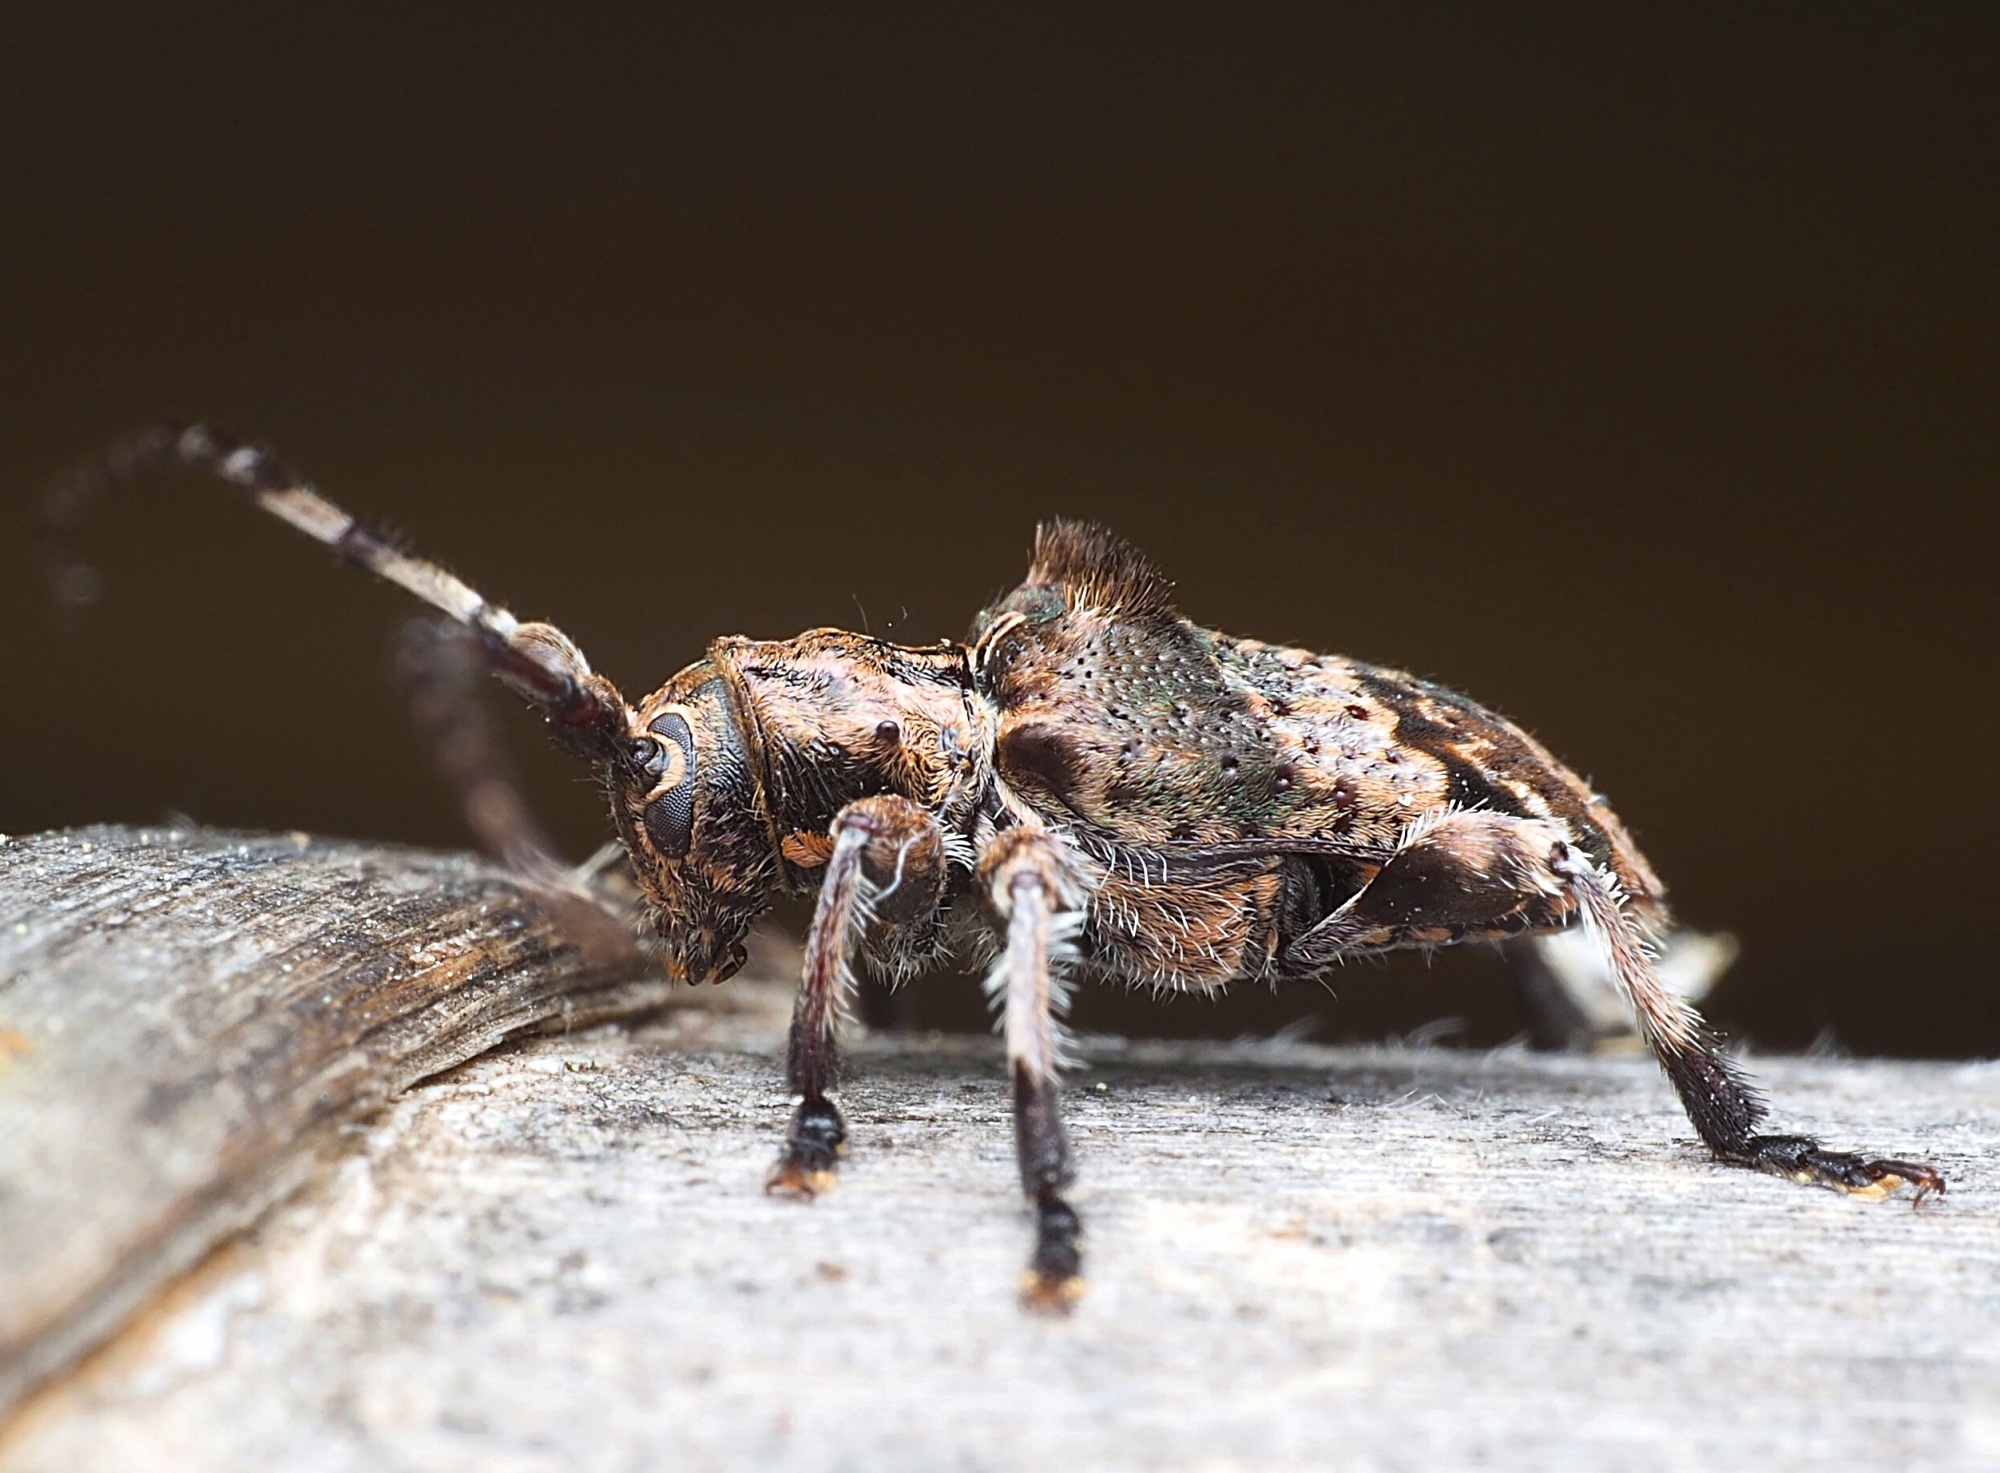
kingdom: Animalia
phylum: Arthropoda
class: Insecta
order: Coleoptera
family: Cerambycidae
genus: Hybolasius
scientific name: Hybolasius cristus
